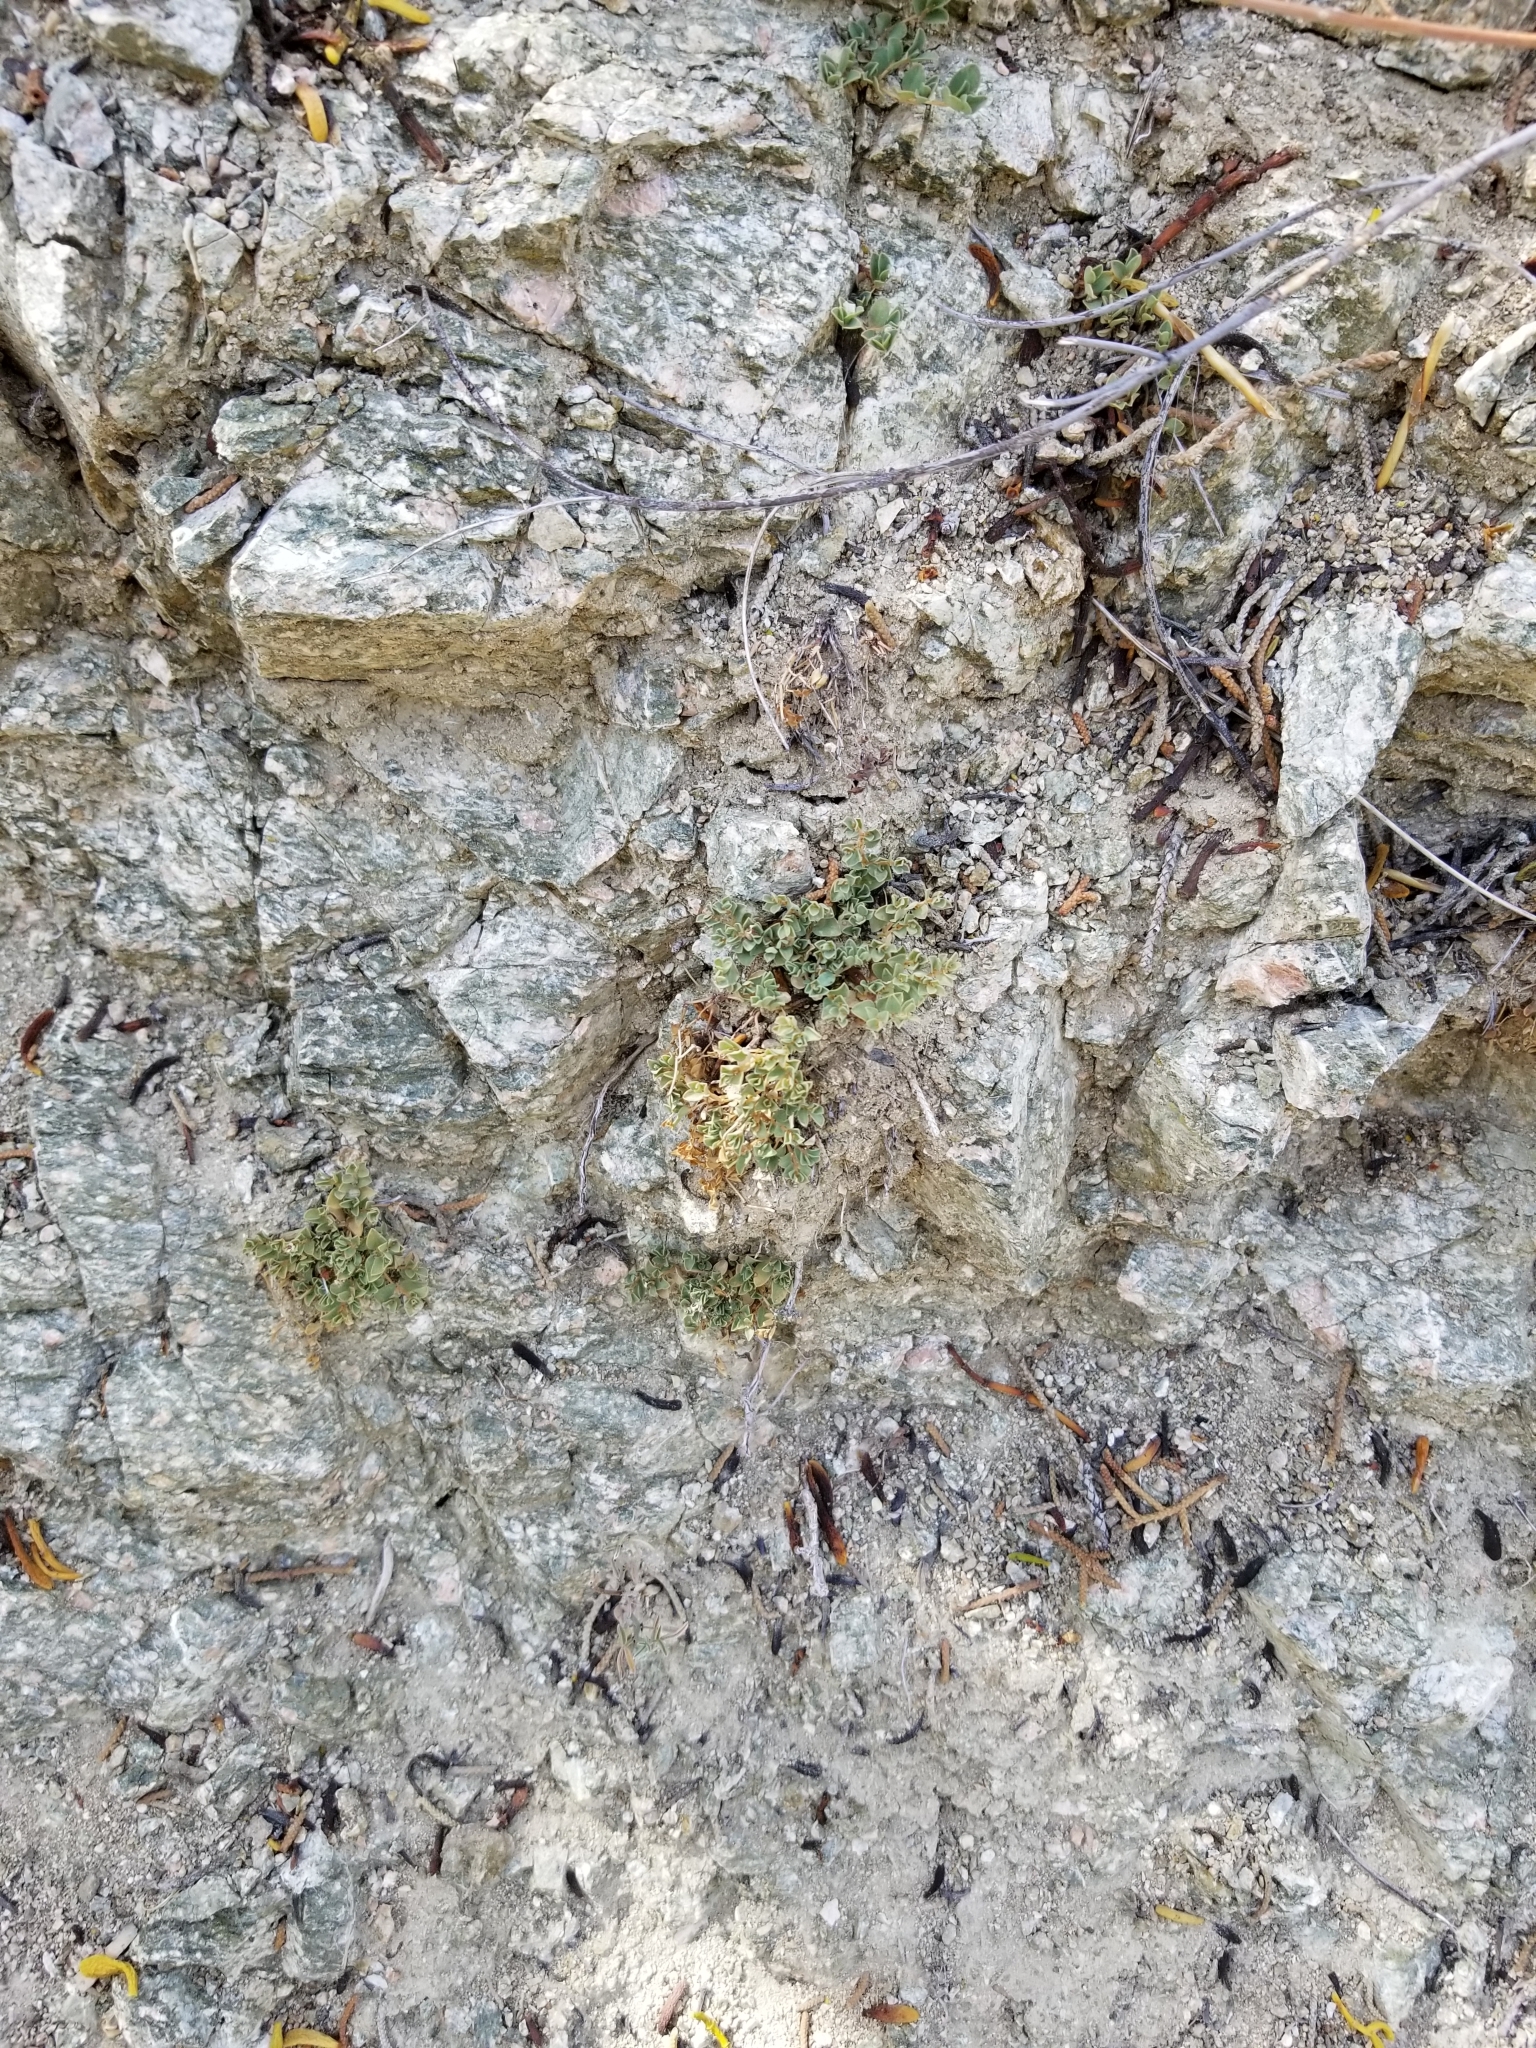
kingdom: Plantae
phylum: Tracheophyta
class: Magnoliopsida
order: Malpighiales
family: Euphorbiaceae
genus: Euphorbia
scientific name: Euphorbia albomarginata
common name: Whitemargin sandmat
